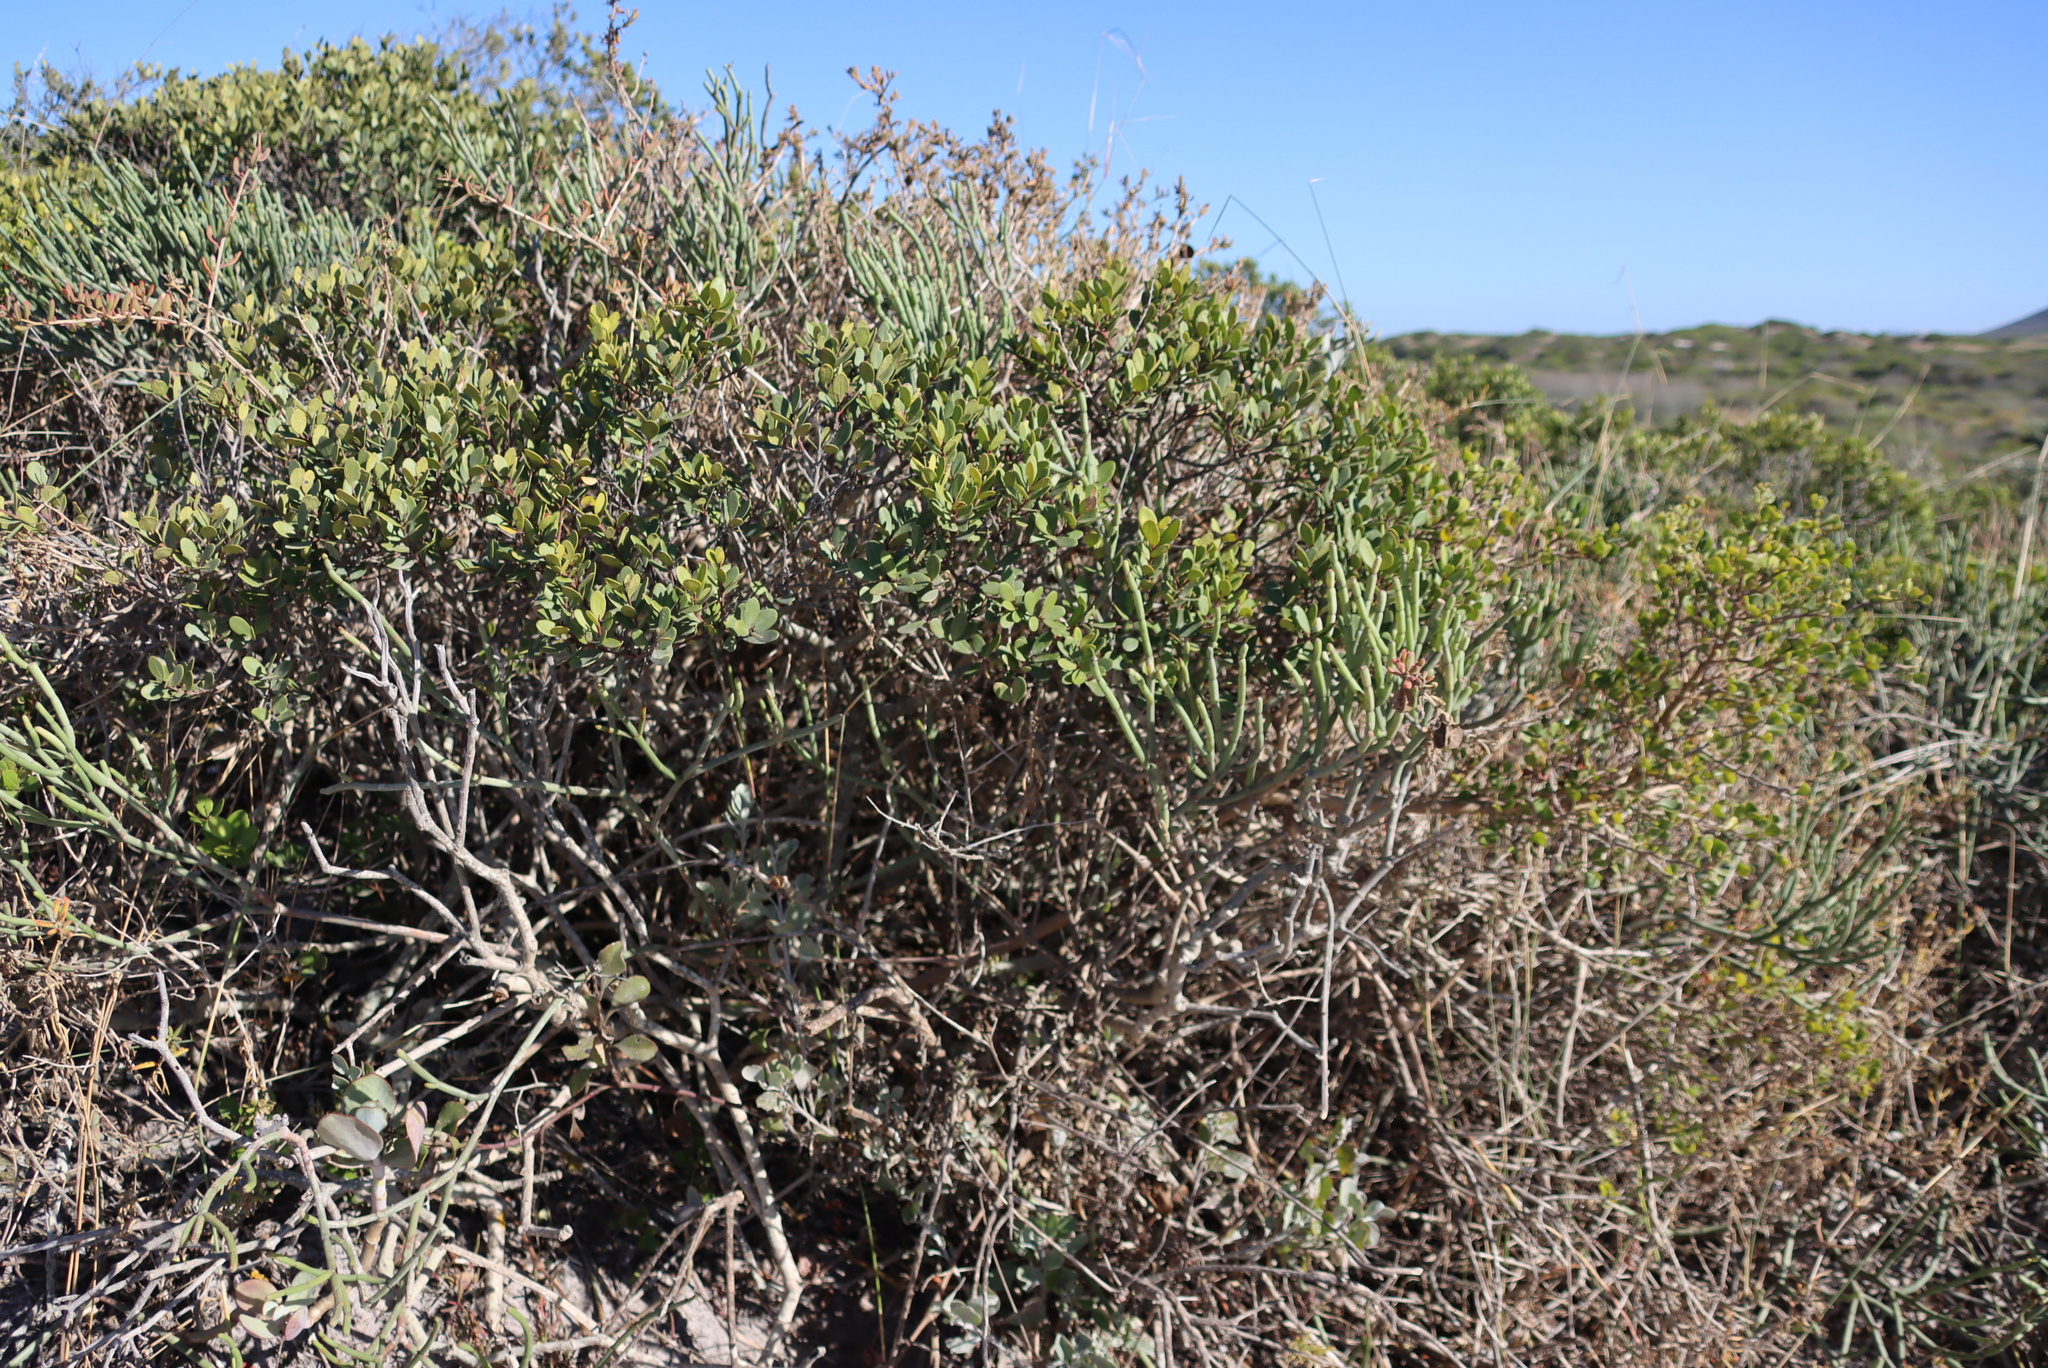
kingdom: Plantae
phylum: Tracheophyta
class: Magnoliopsida
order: Malpighiales
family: Euphorbiaceae
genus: Euphorbia
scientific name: Euphorbia burmanni
